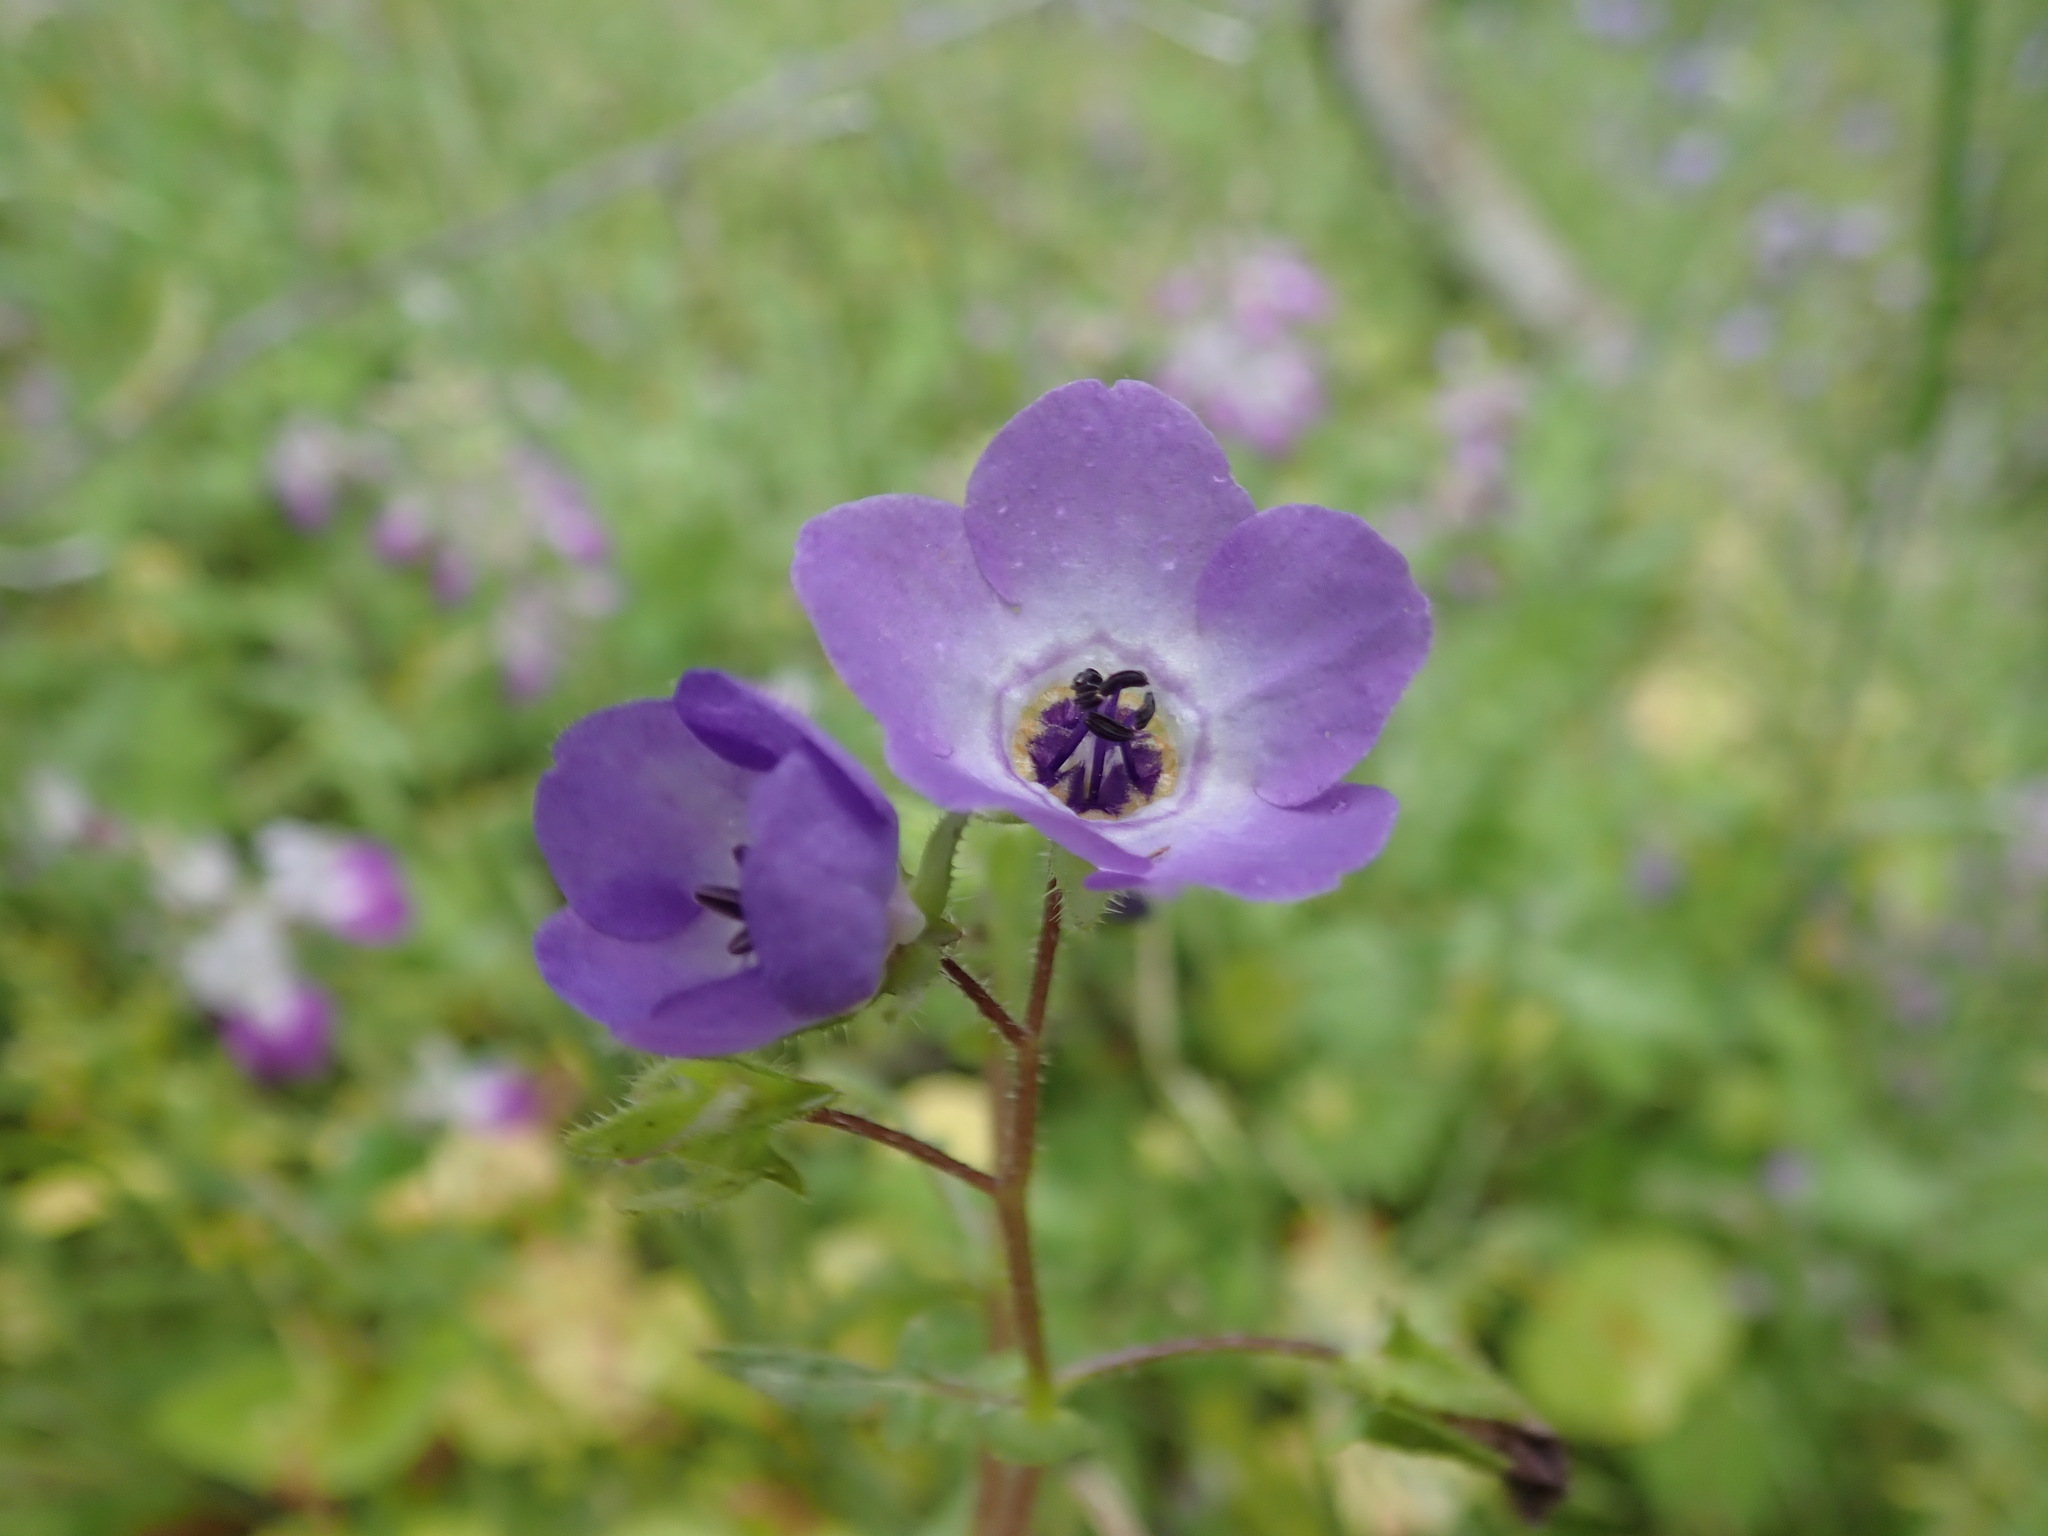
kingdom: Plantae
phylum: Tracheophyta
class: Magnoliopsida
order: Boraginales
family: Hydrophyllaceae
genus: Pholistoma
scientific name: Pholistoma auritum
